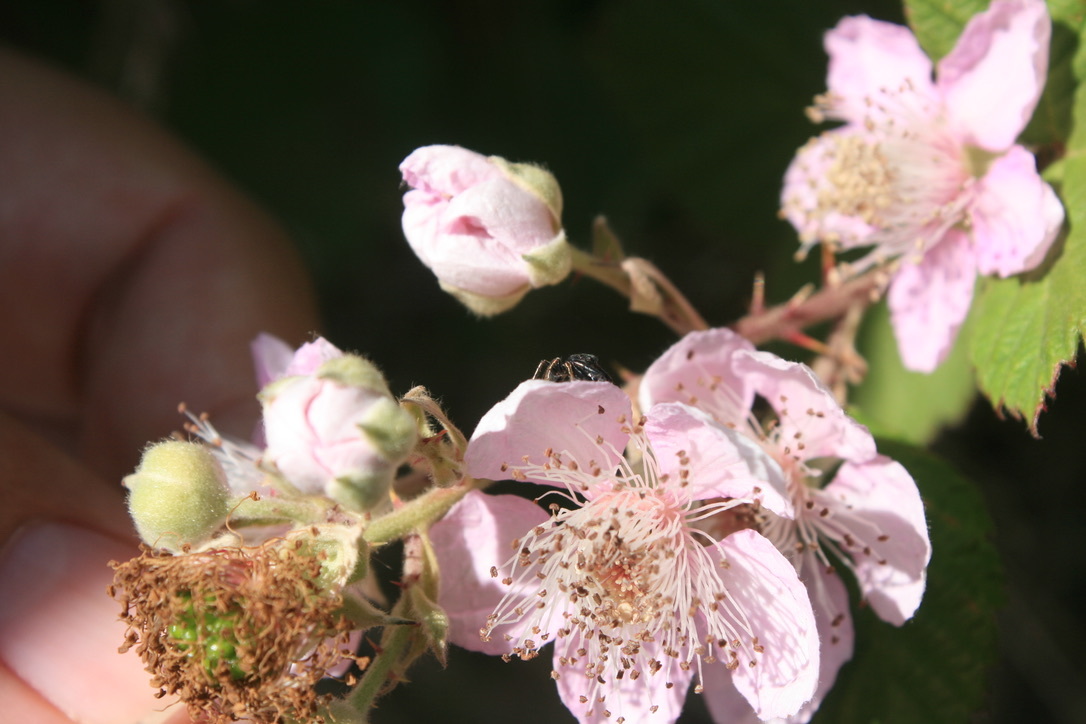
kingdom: Plantae
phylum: Tracheophyta
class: Magnoliopsida
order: Rosales
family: Rosaceae
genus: Rubus
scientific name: Rubus armeniacus
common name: Himalayan blackberry
